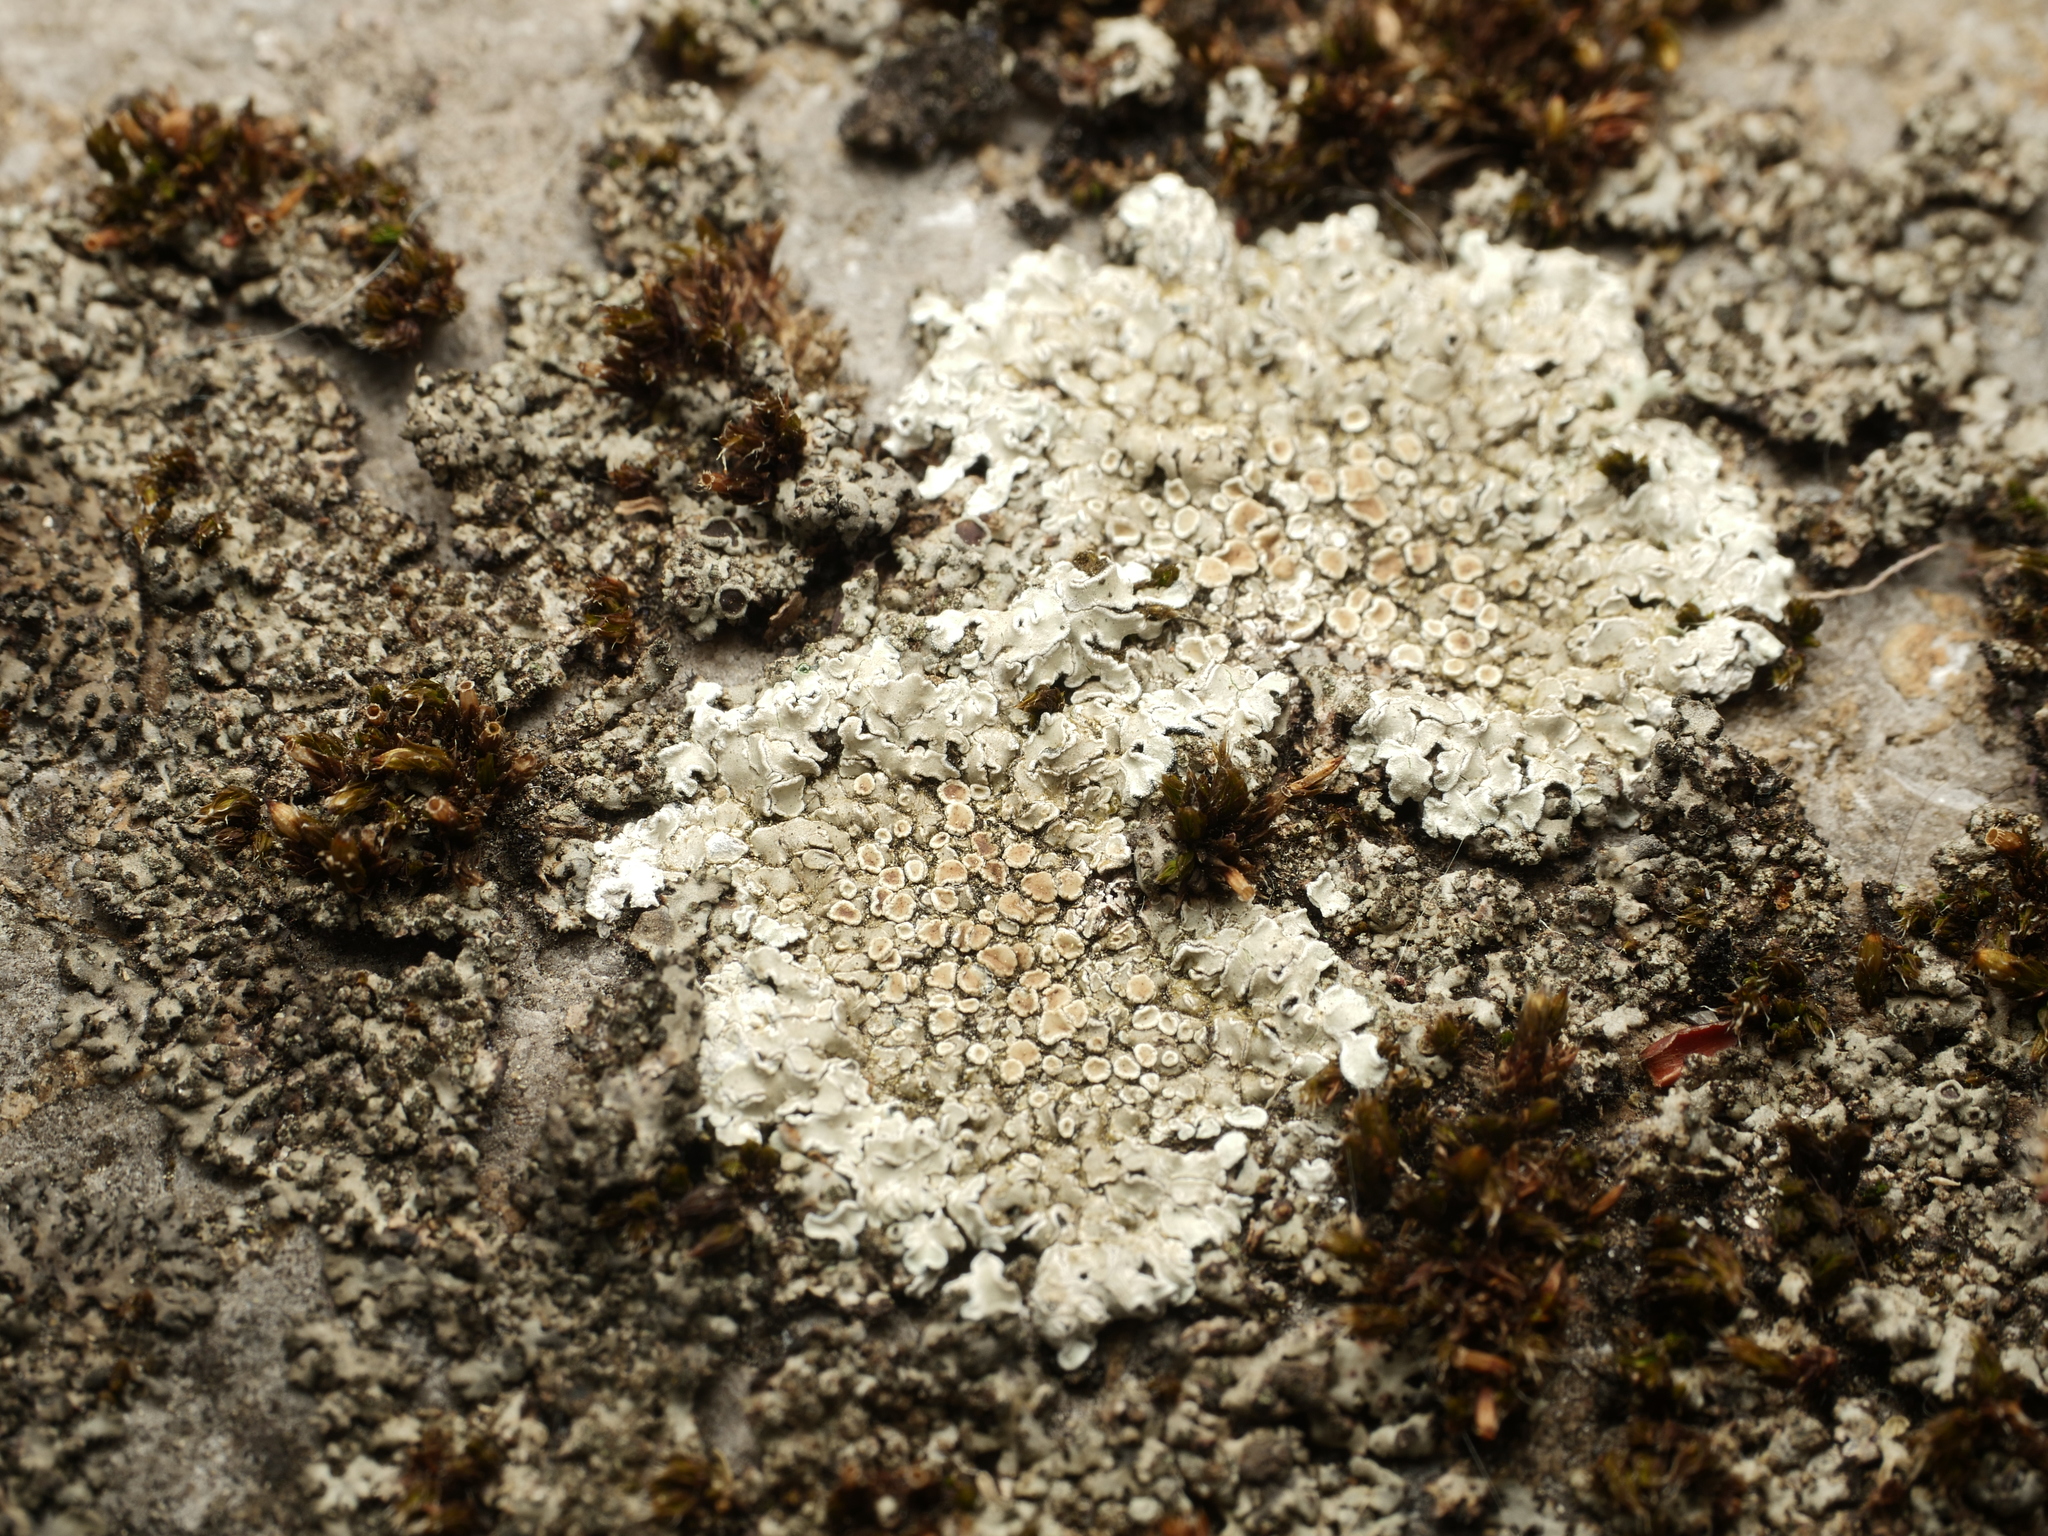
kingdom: Fungi
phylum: Ascomycota
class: Lecanoromycetes
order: Lecanorales
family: Lecanoraceae
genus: Protoparmeliopsis
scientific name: Protoparmeliopsis muralis
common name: Stonewall rim lichen
